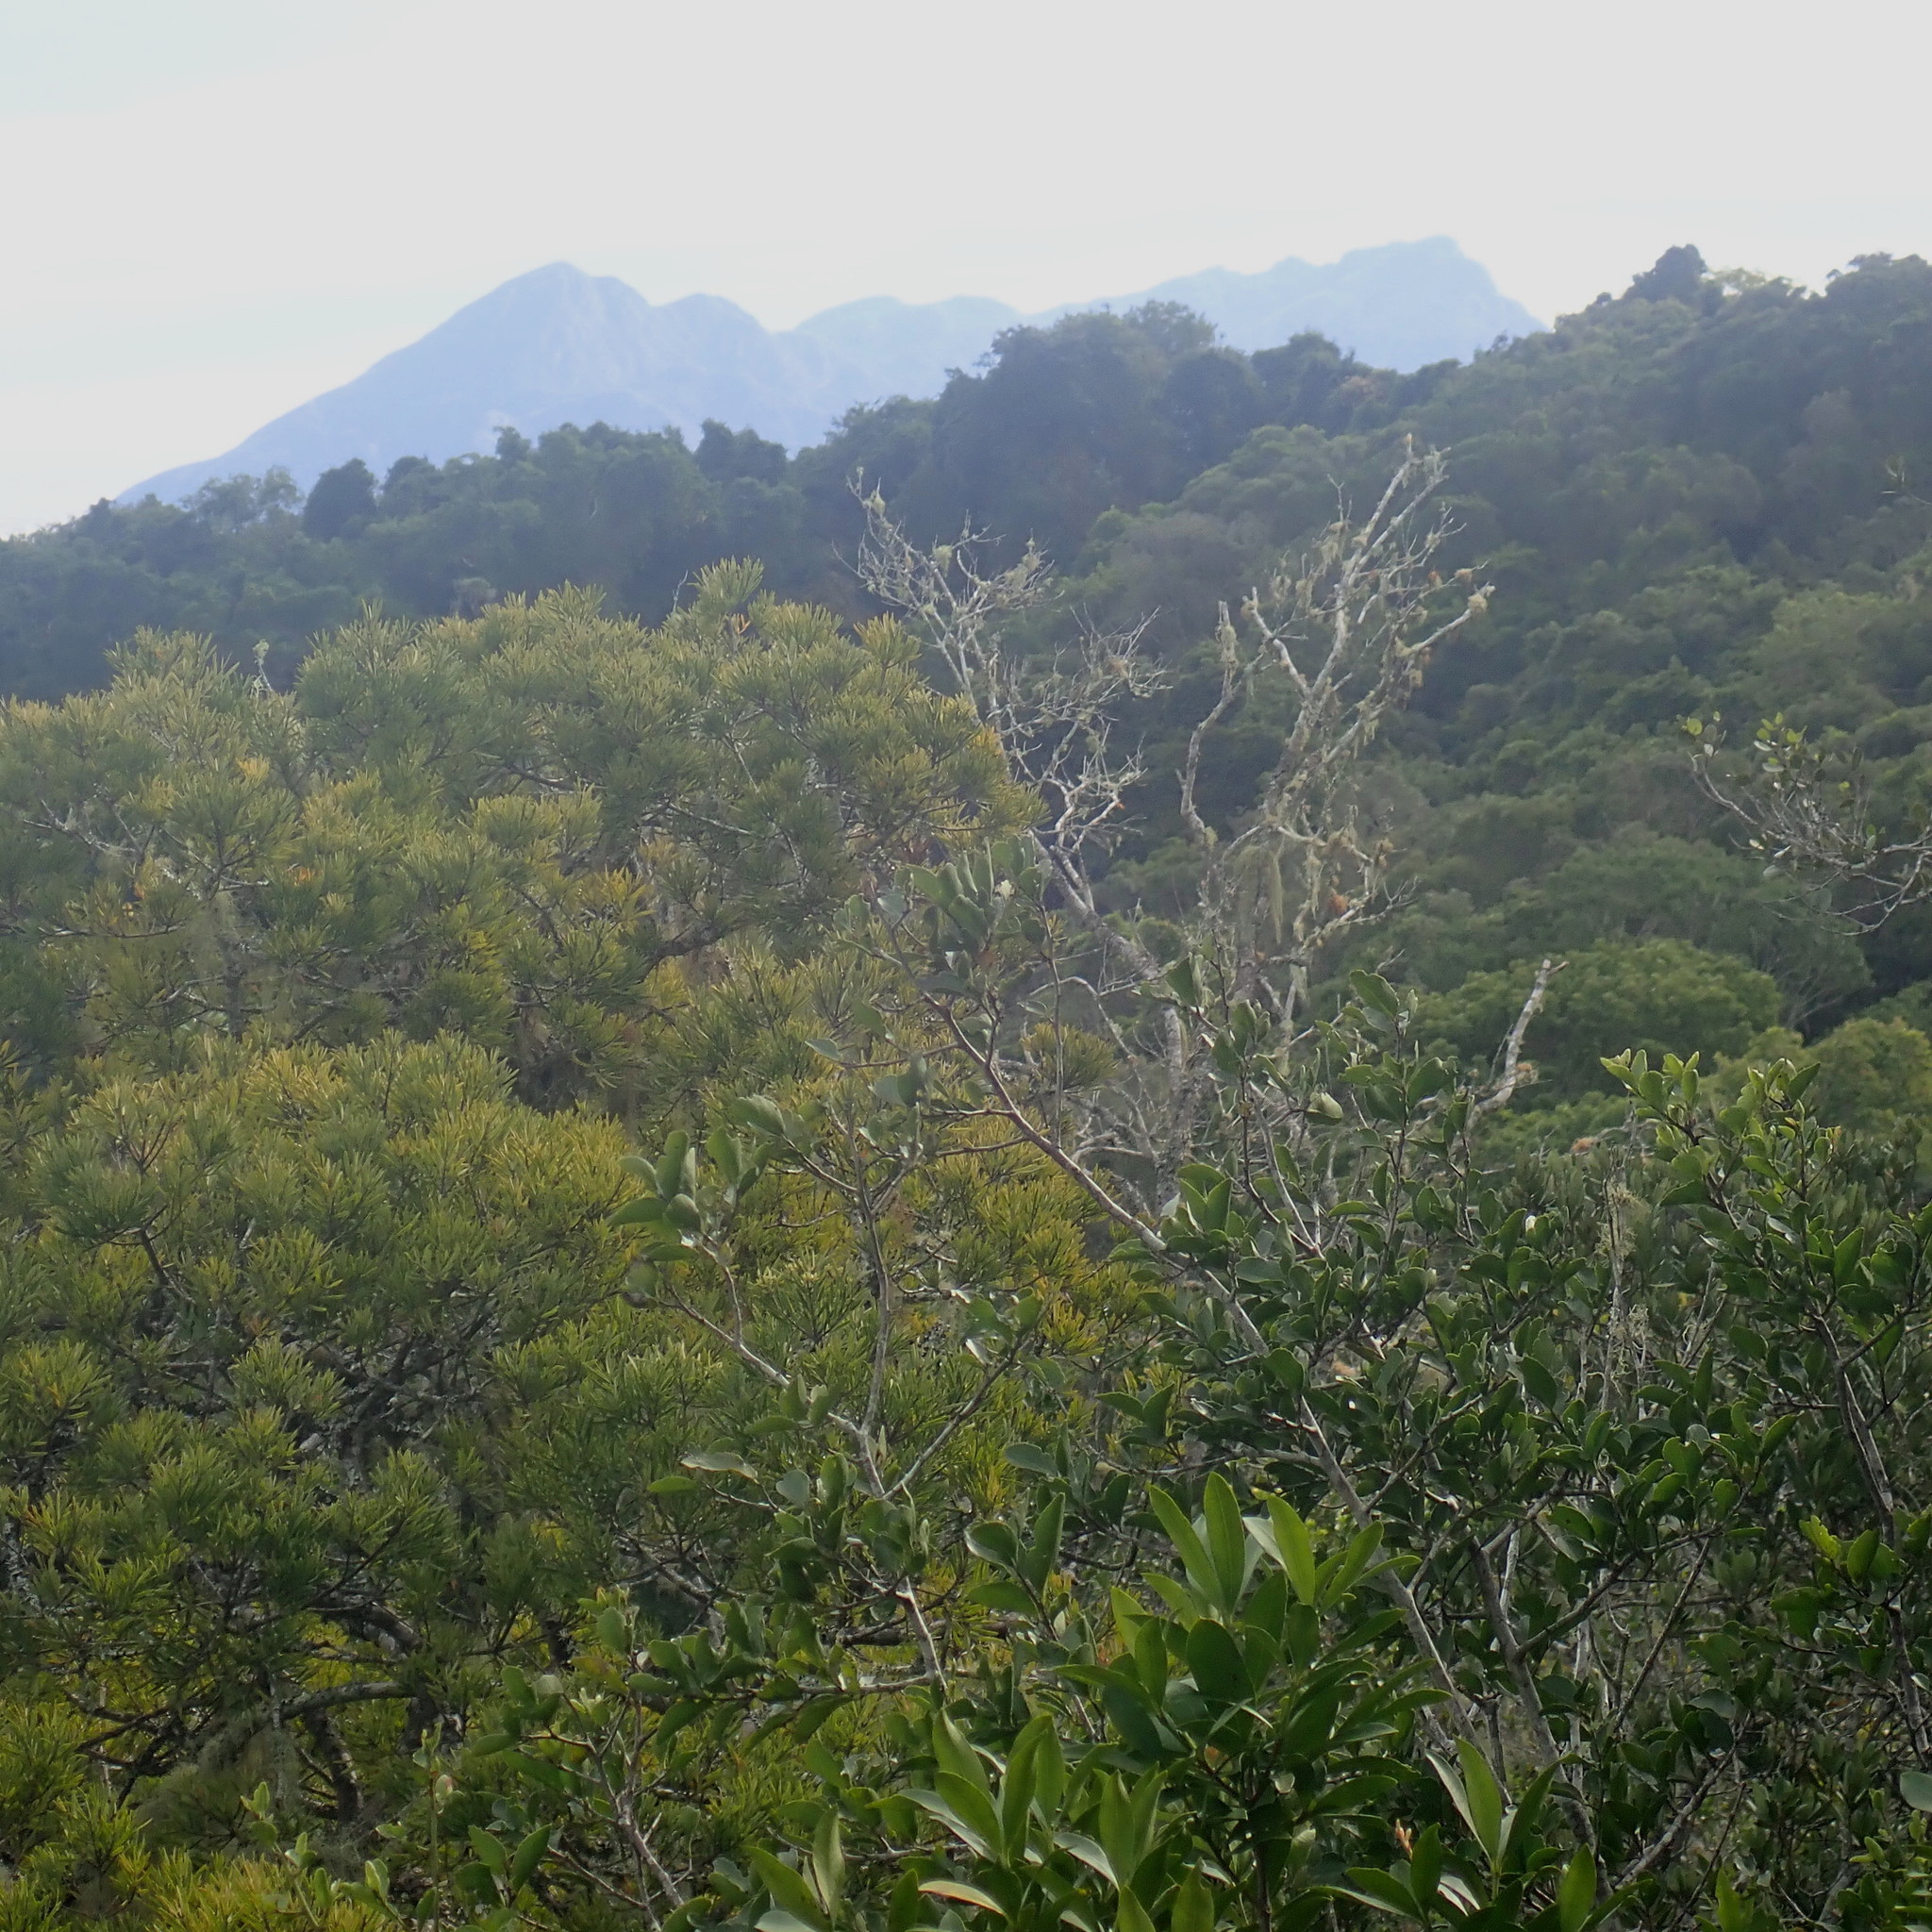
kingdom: Plantae
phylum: Tracheophyta
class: Pinopsida
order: Pinales
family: Podocarpaceae
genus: Afrocarpus
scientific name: Afrocarpus falcatus
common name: Bastard yellowwood
